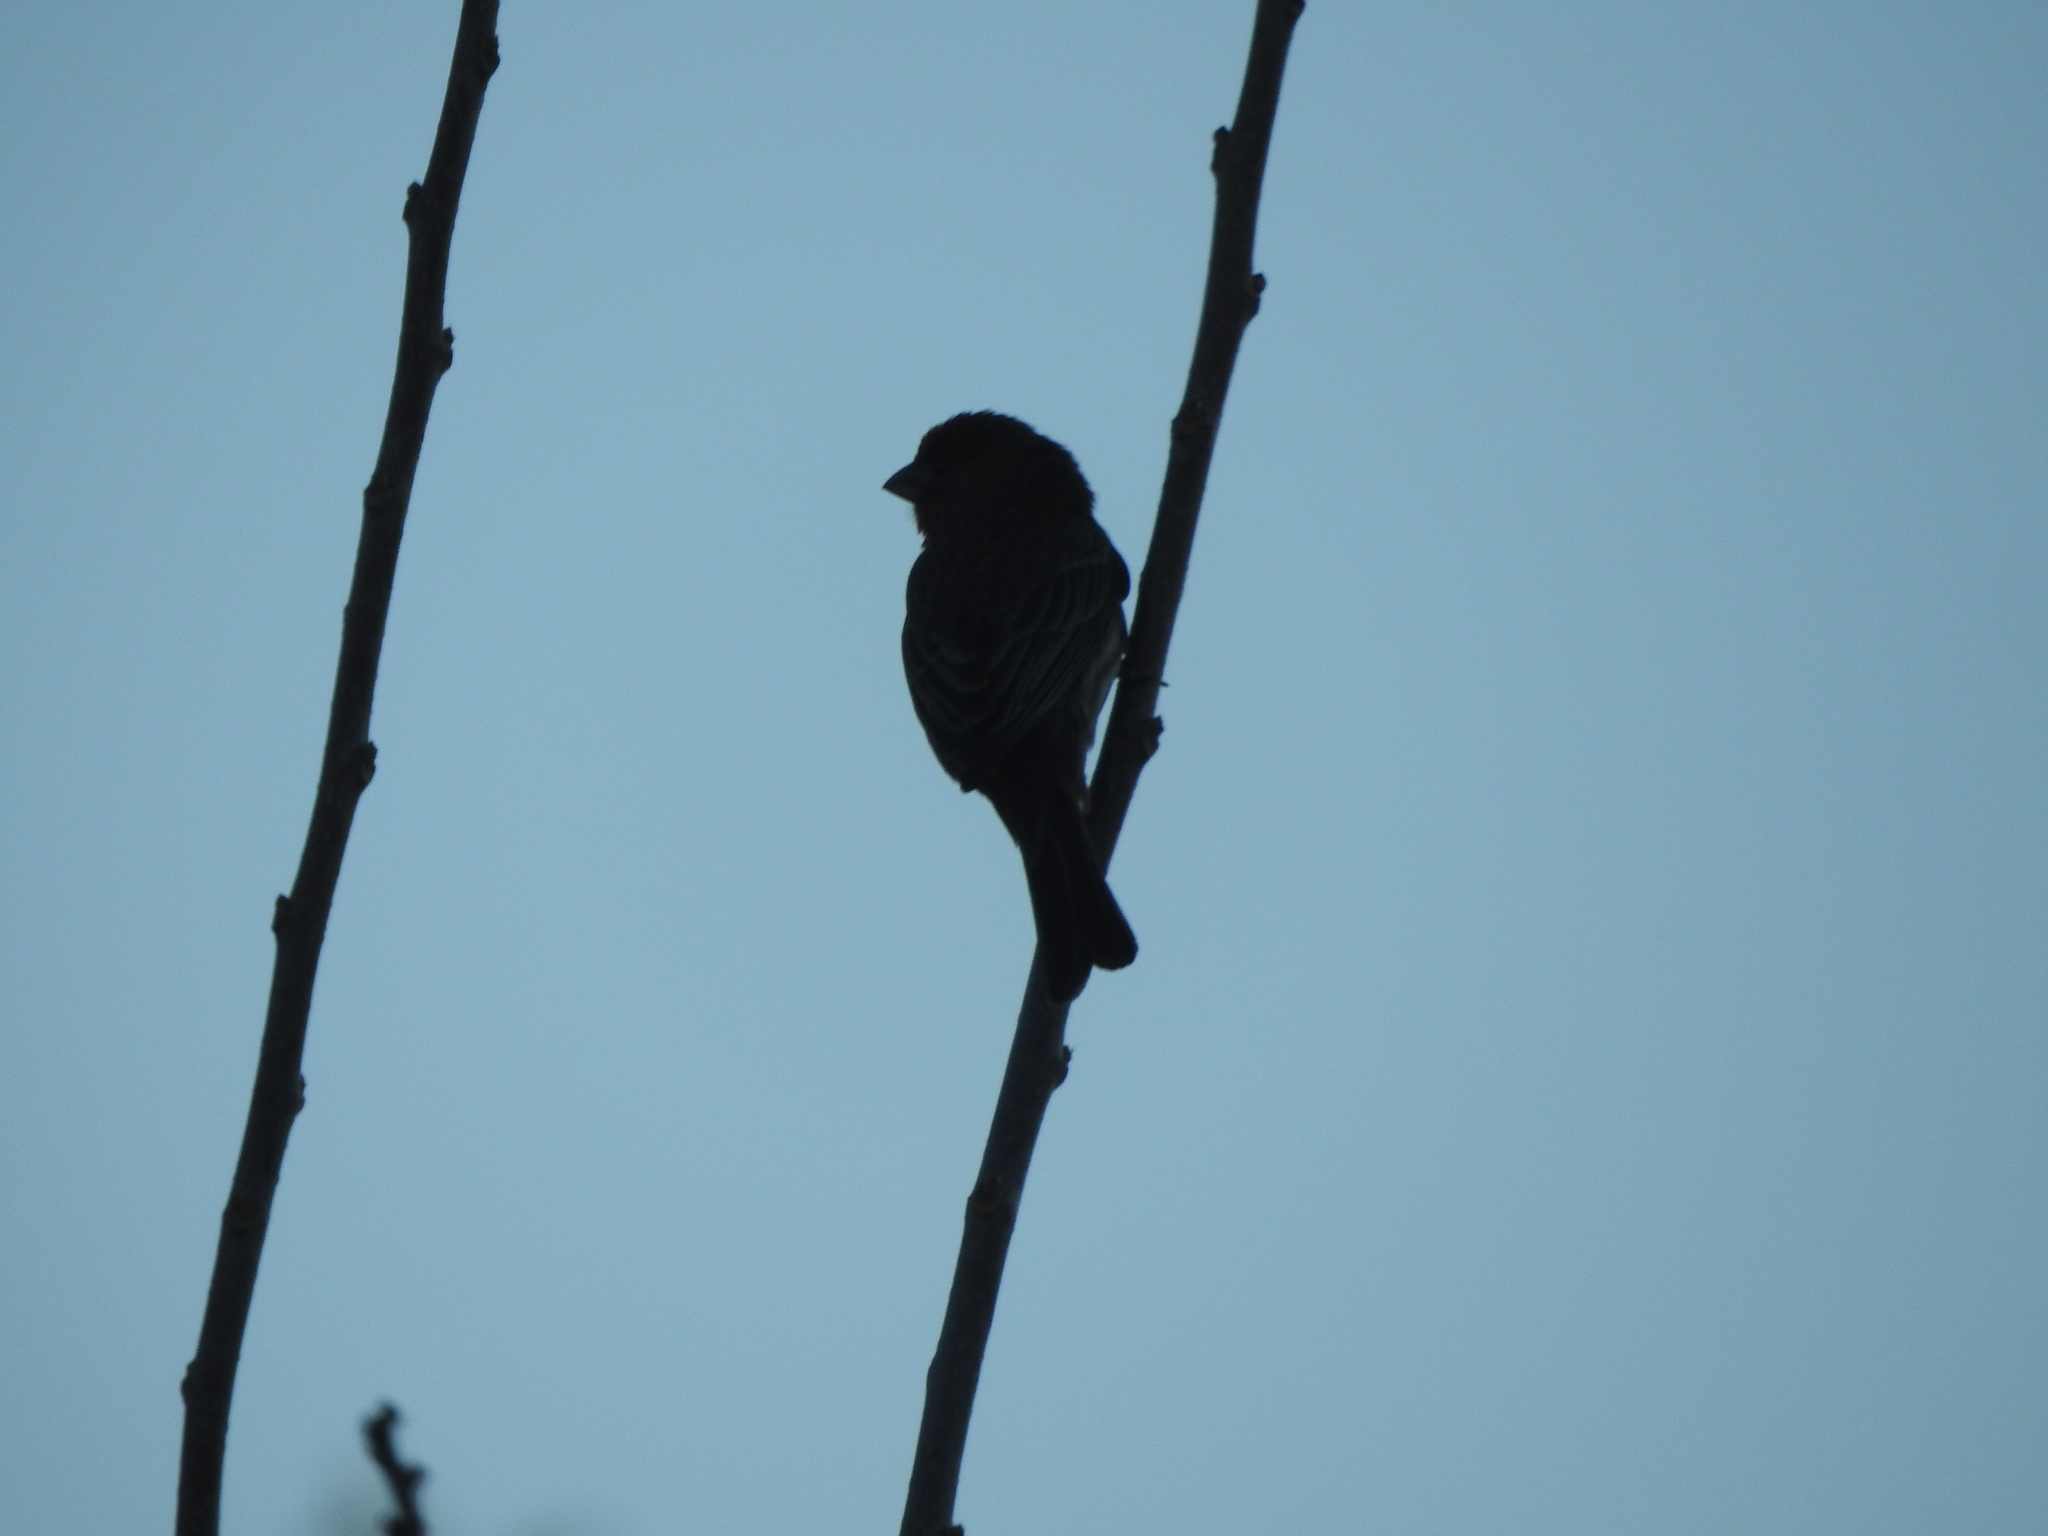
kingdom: Animalia
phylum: Chordata
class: Aves
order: Passeriformes
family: Fringillidae
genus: Haemorhous
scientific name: Haemorhous mexicanus
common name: House finch
